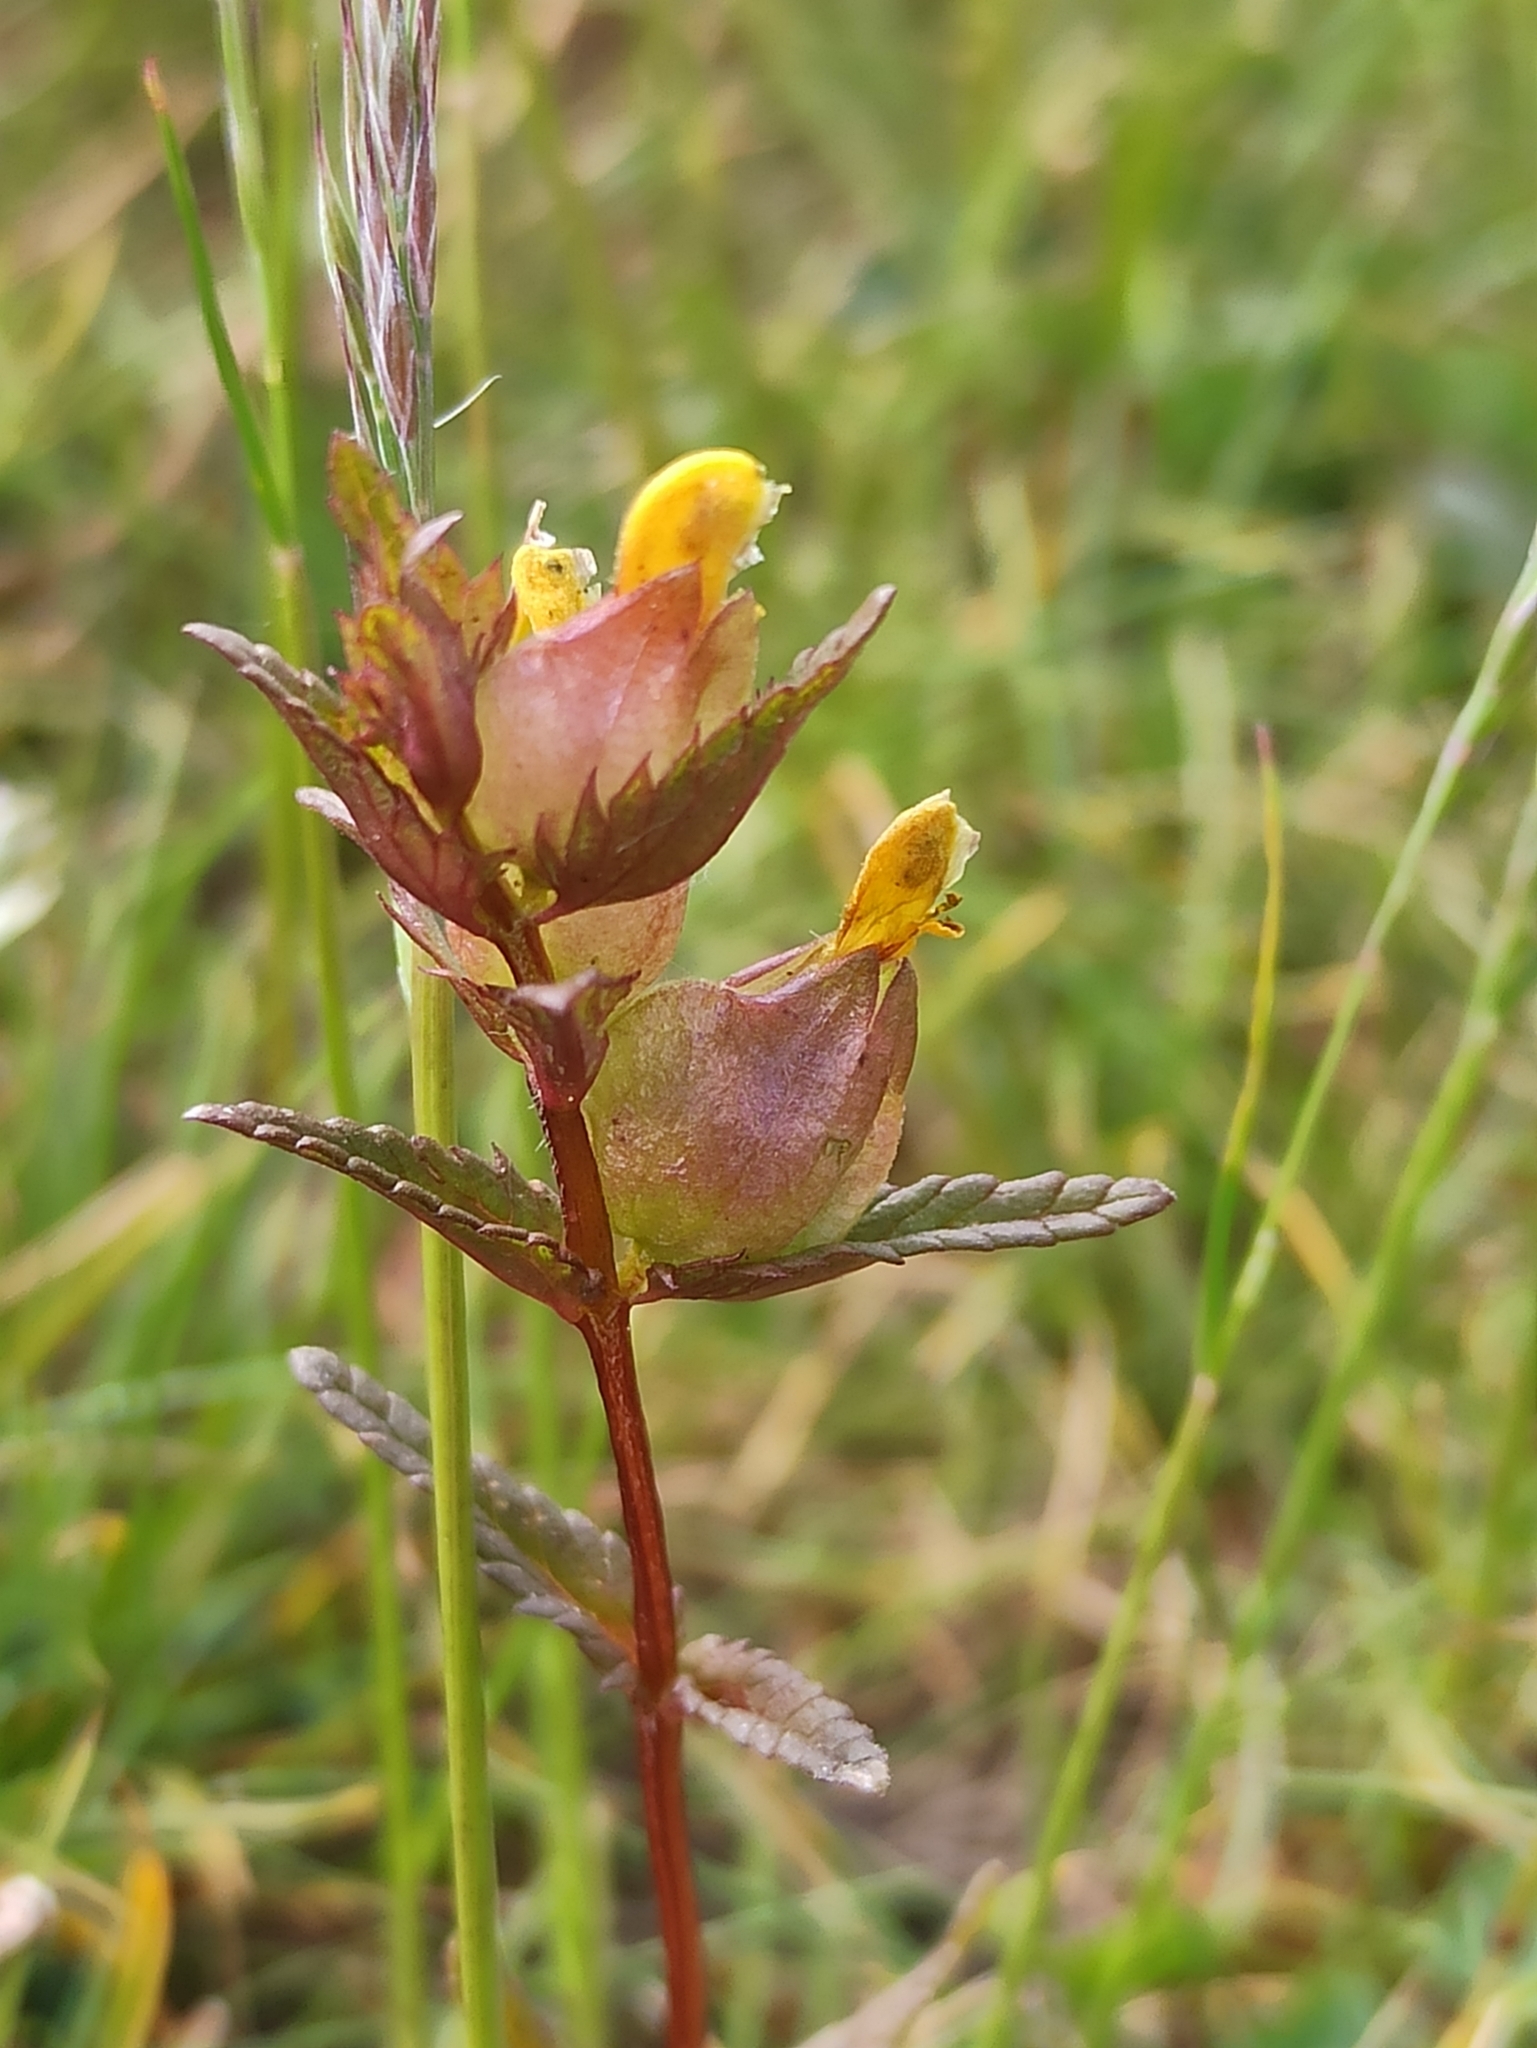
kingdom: Plantae
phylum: Tracheophyta
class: Magnoliopsida
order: Lamiales
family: Orobanchaceae
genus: Rhinanthus
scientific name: Rhinanthus minor
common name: Yellow-rattle
